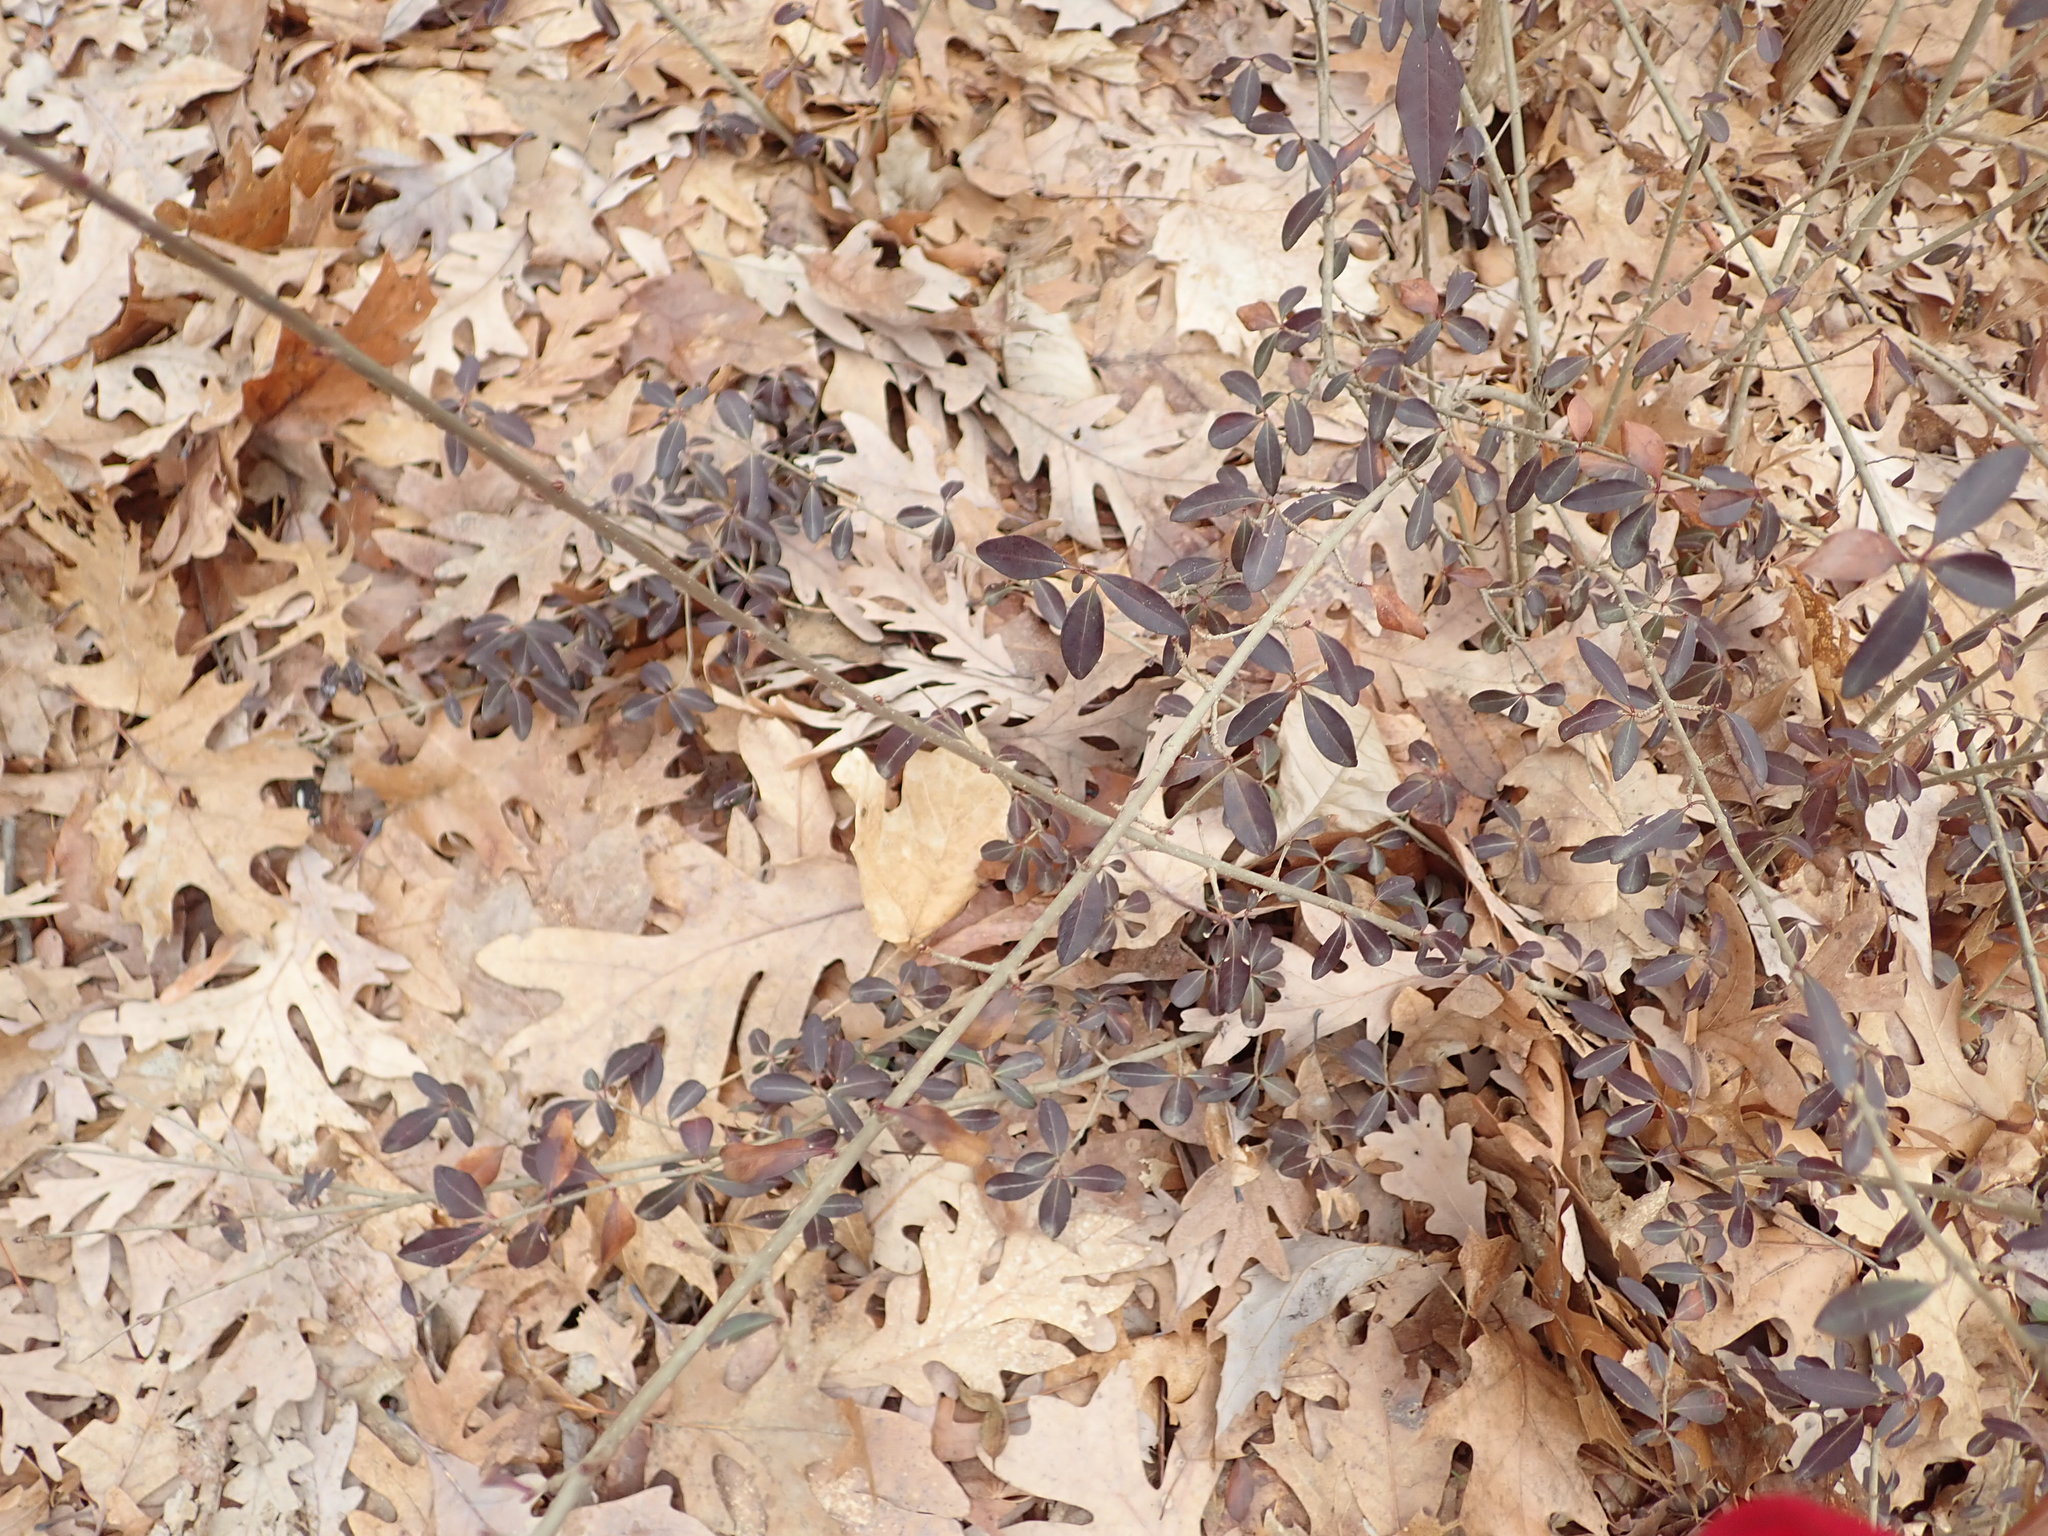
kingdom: Plantae
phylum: Tracheophyta
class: Magnoliopsida
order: Lamiales
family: Oleaceae
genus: Ligustrum
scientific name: Ligustrum
